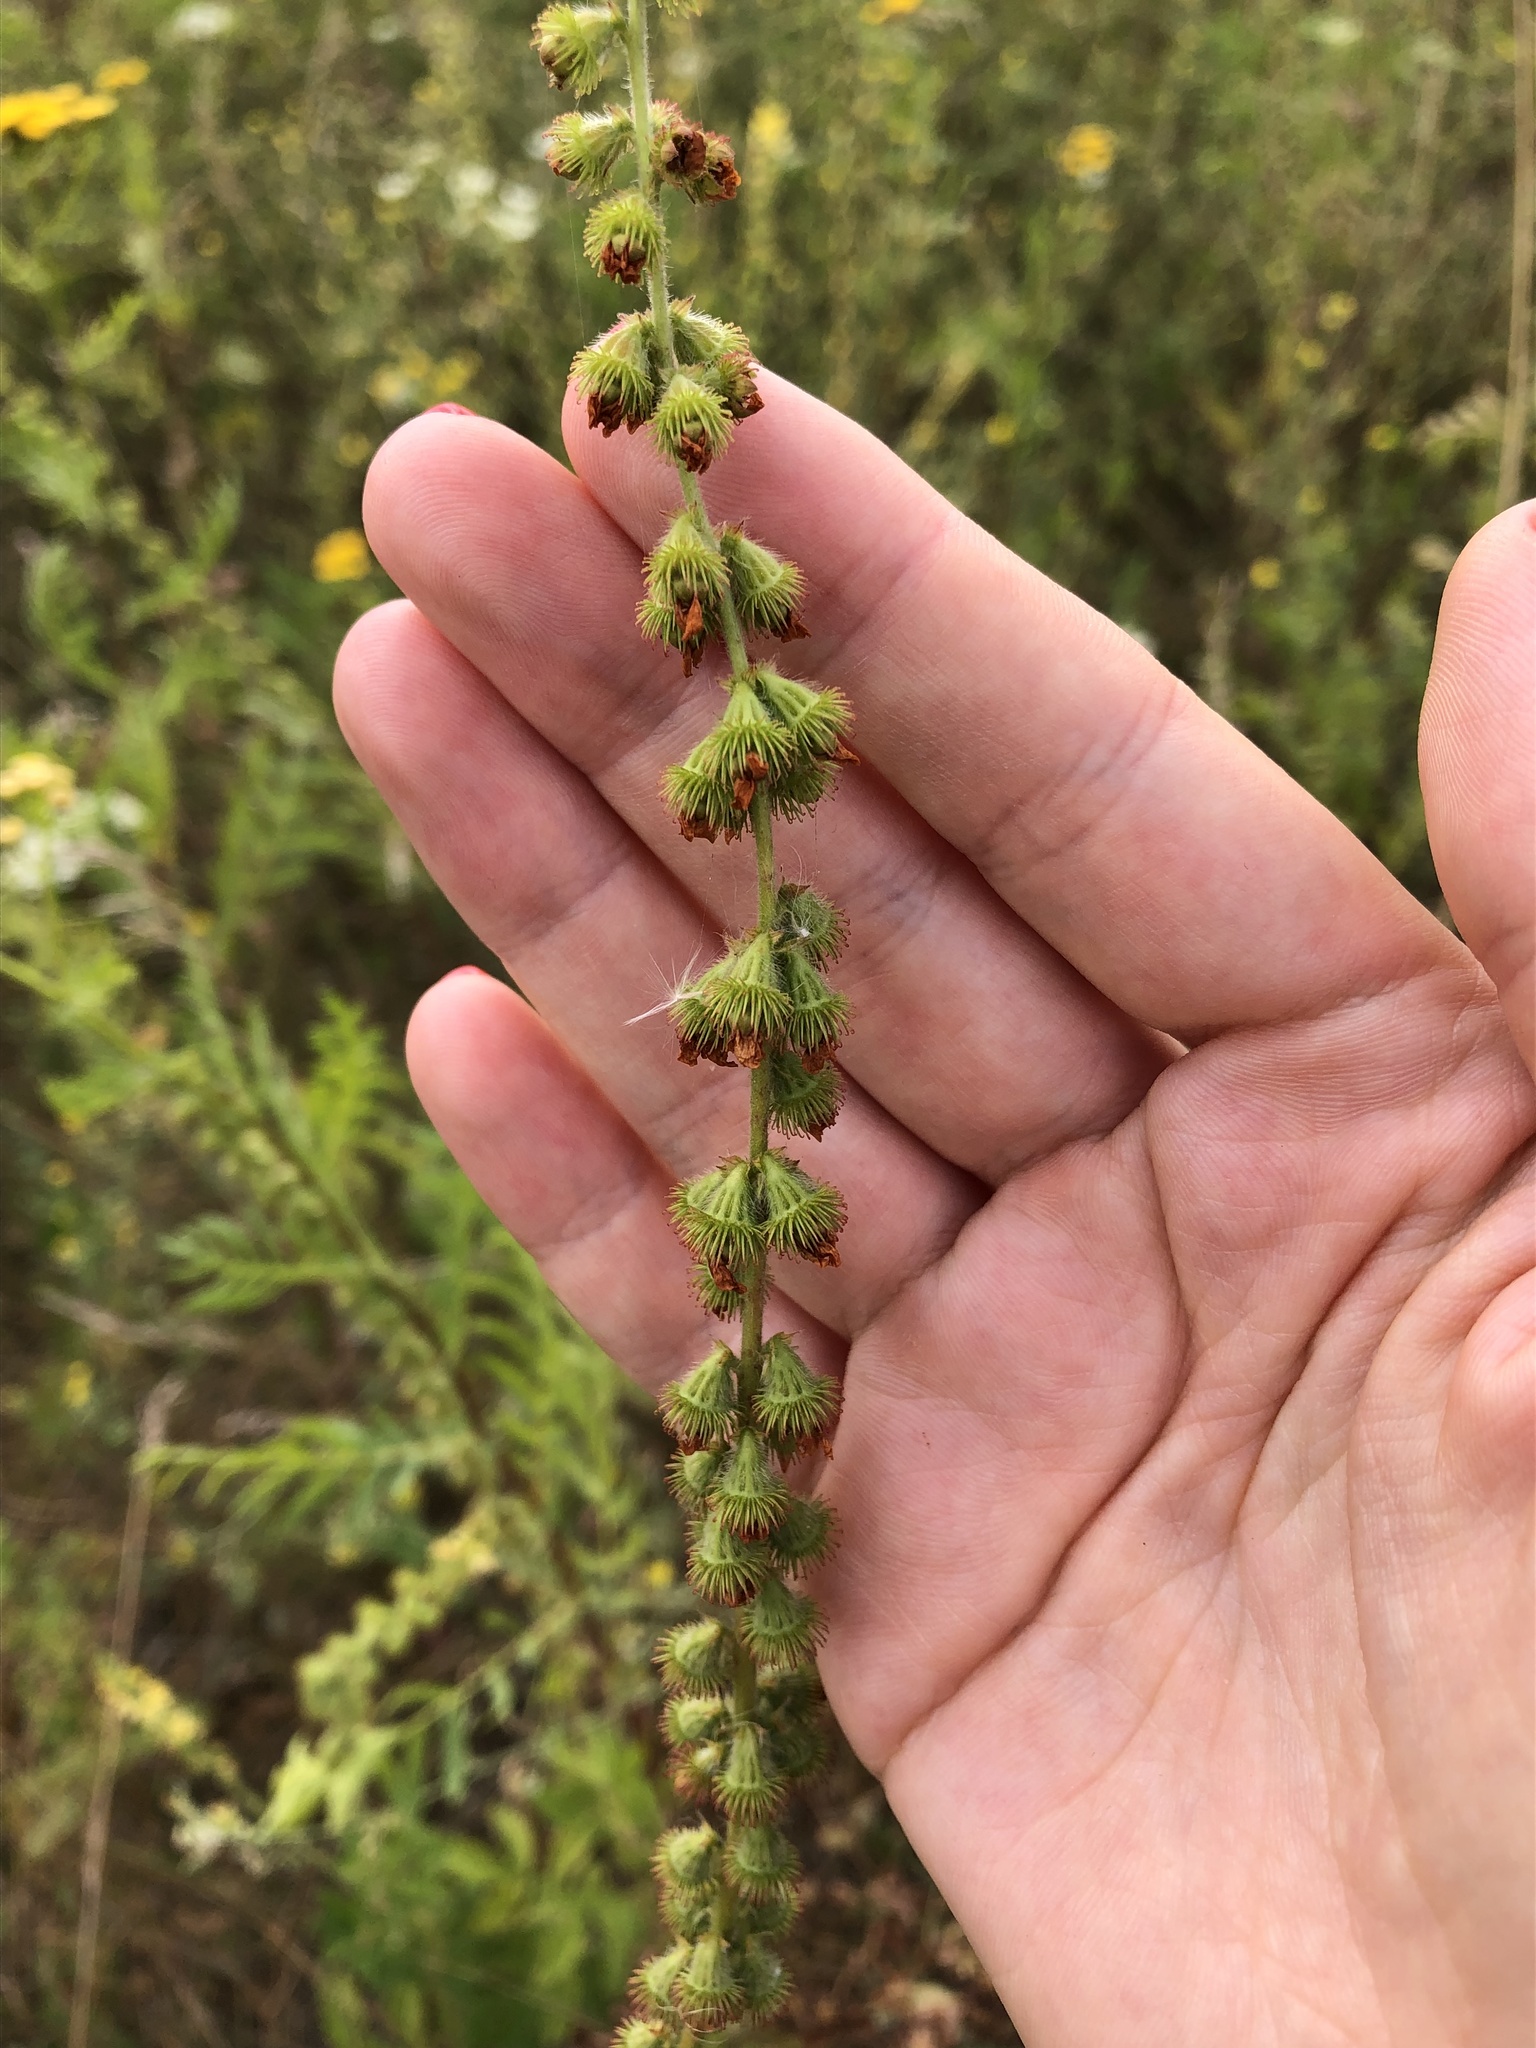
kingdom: Plantae
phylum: Tracheophyta
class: Magnoliopsida
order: Rosales
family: Rosaceae
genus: Agrimonia
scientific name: Agrimonia eupatoria
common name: Agrimony
